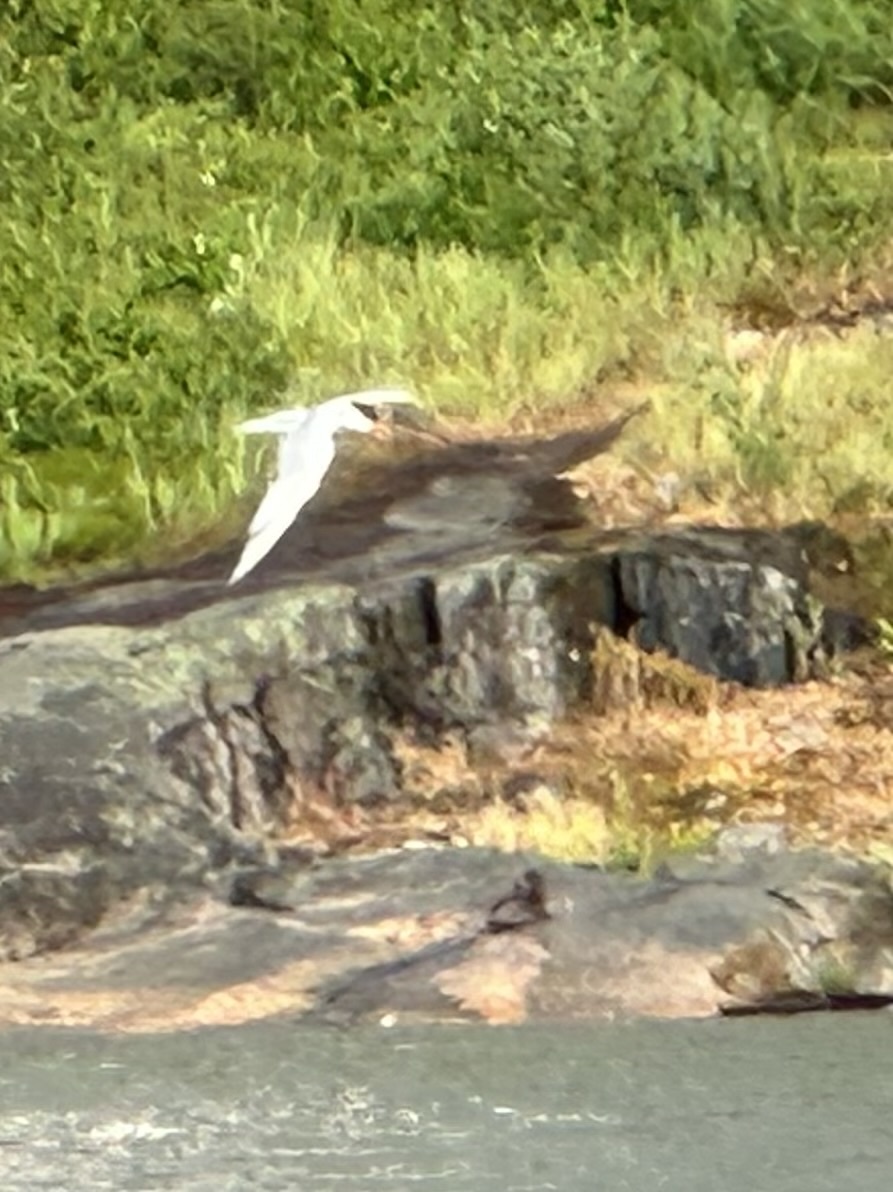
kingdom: Animalia
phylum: Chordata
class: Aves
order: Charadriiformes
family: Laridae
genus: Sterna
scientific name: Sterna hirundo
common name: Common tern
